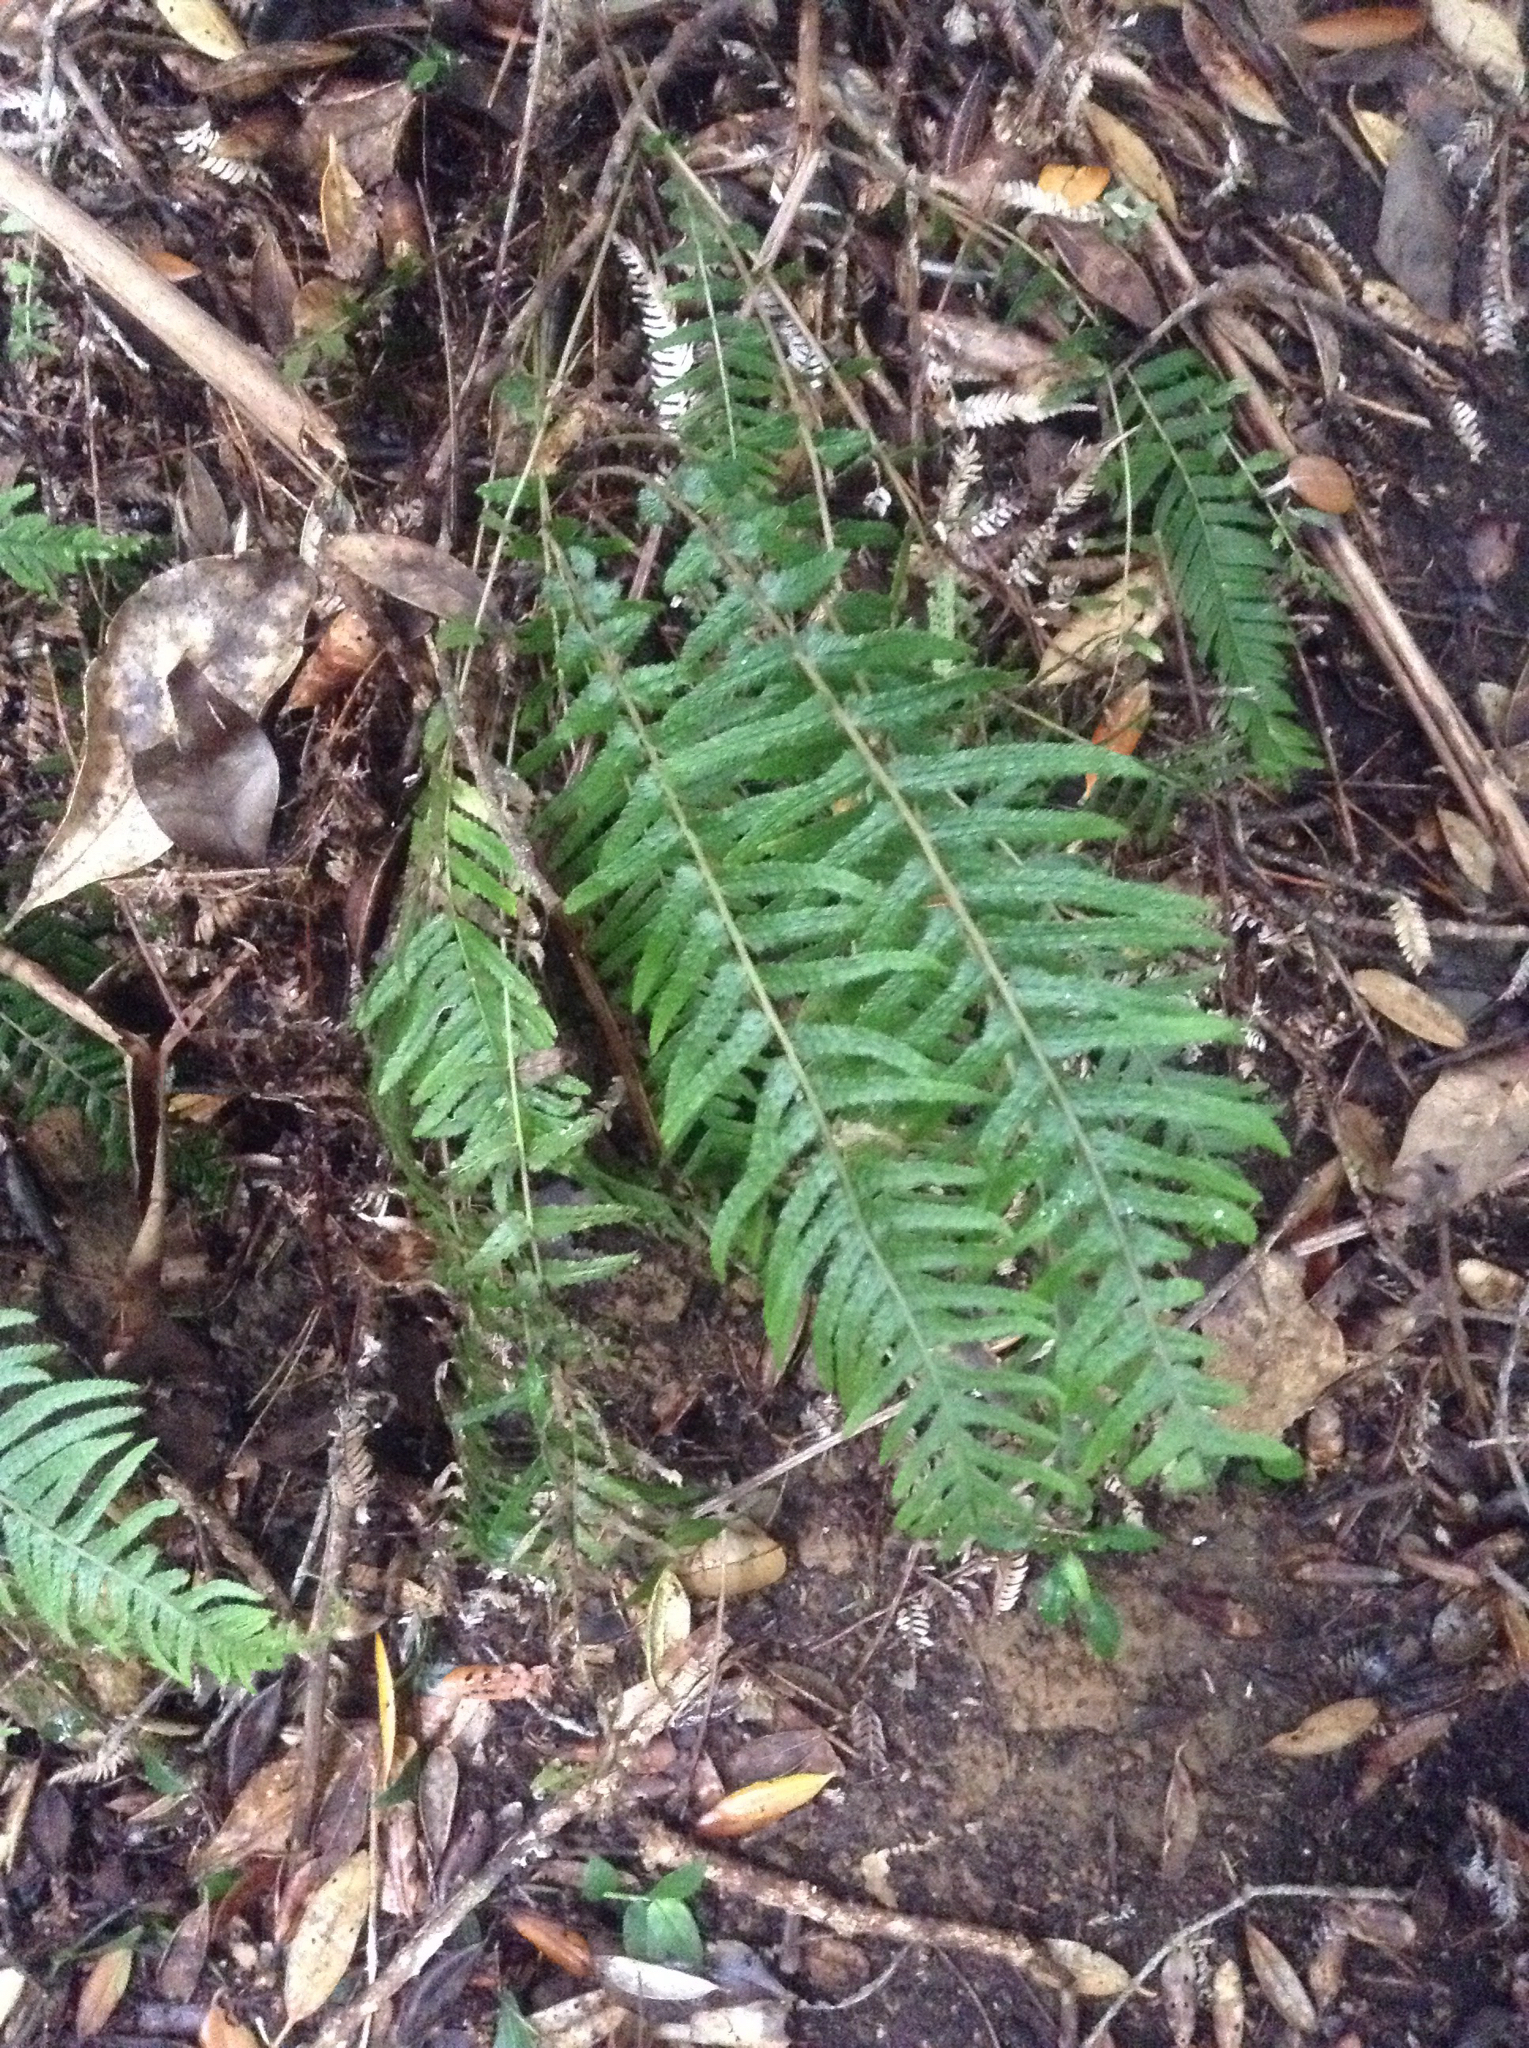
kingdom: Plantae
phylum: Tracheophyta
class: Polypodiopsida
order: Polypodiales
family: Blechnaceae
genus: Doodia
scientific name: Doodia australis
